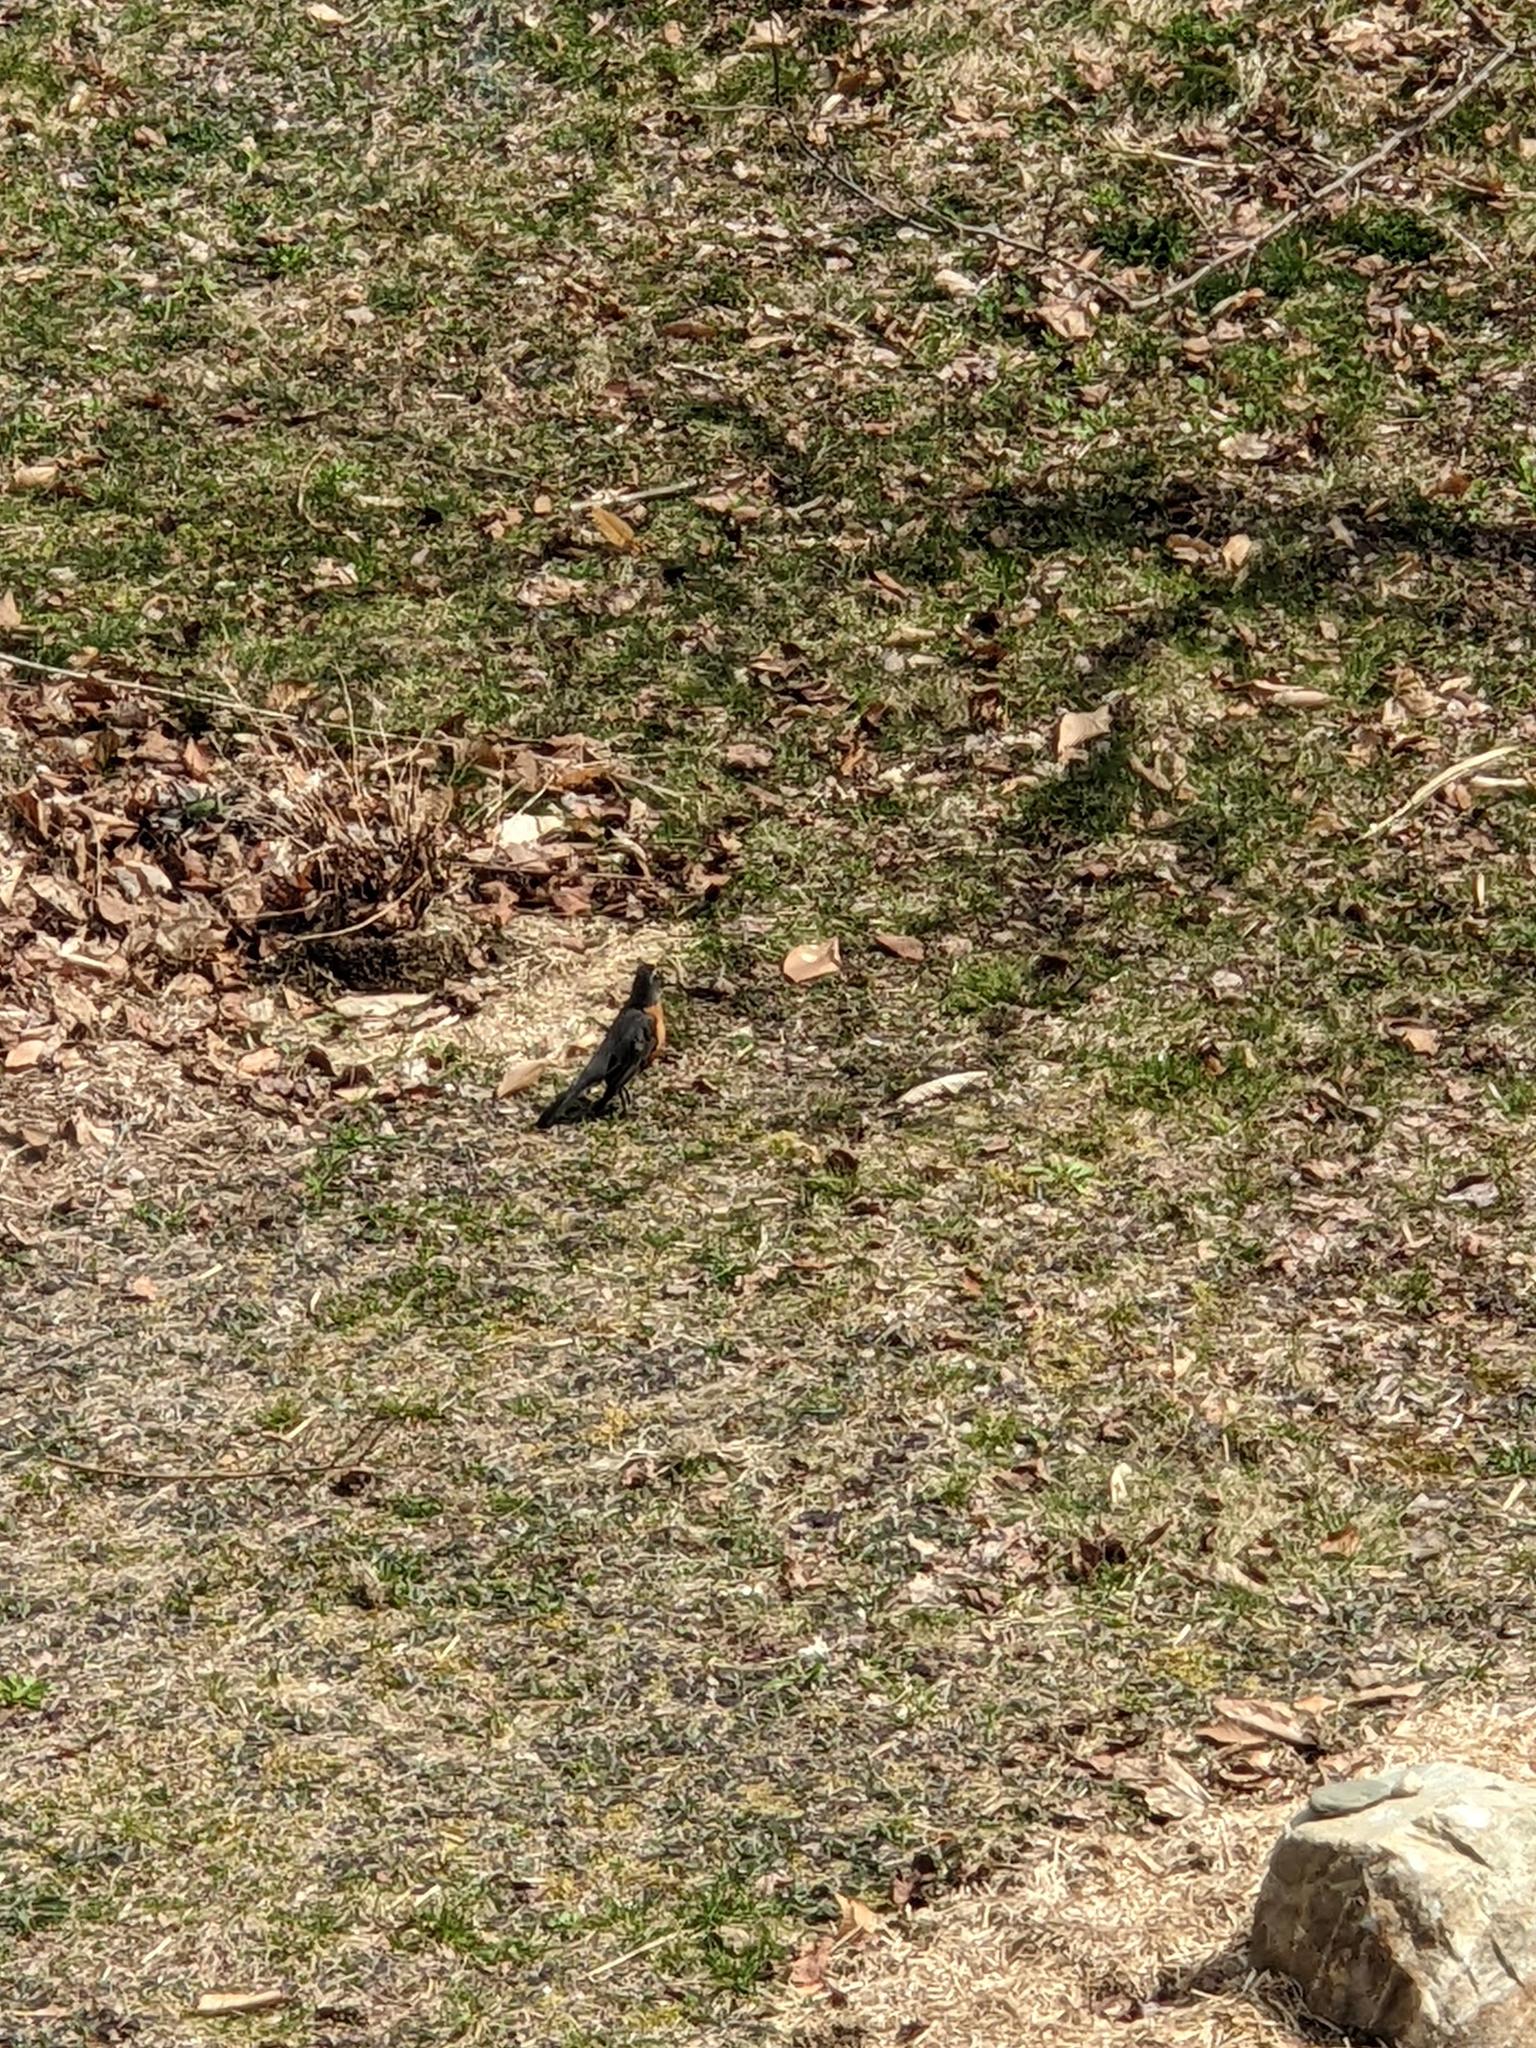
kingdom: Animalia
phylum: Chordata
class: Aves
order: Passeriformes
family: Turdidae
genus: Turdus
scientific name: Turdus migratorius
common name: American robin
